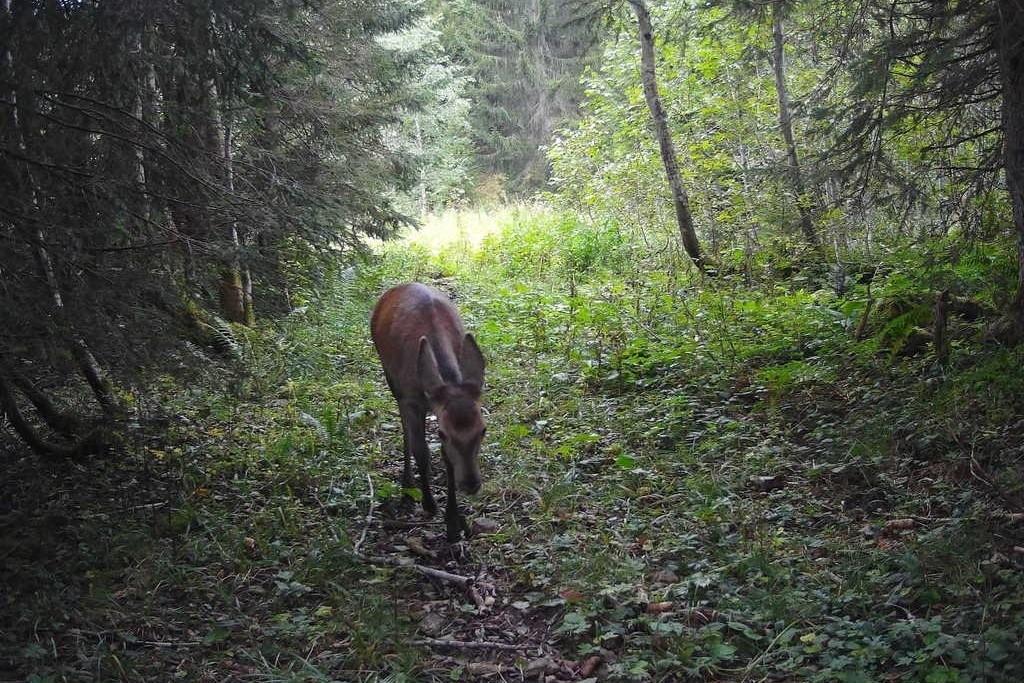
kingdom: Animalia
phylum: Chordata
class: Mammalia
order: Artiodactyla
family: Cervidae
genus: Cervus
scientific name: Cervus elaphus
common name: Red deer
